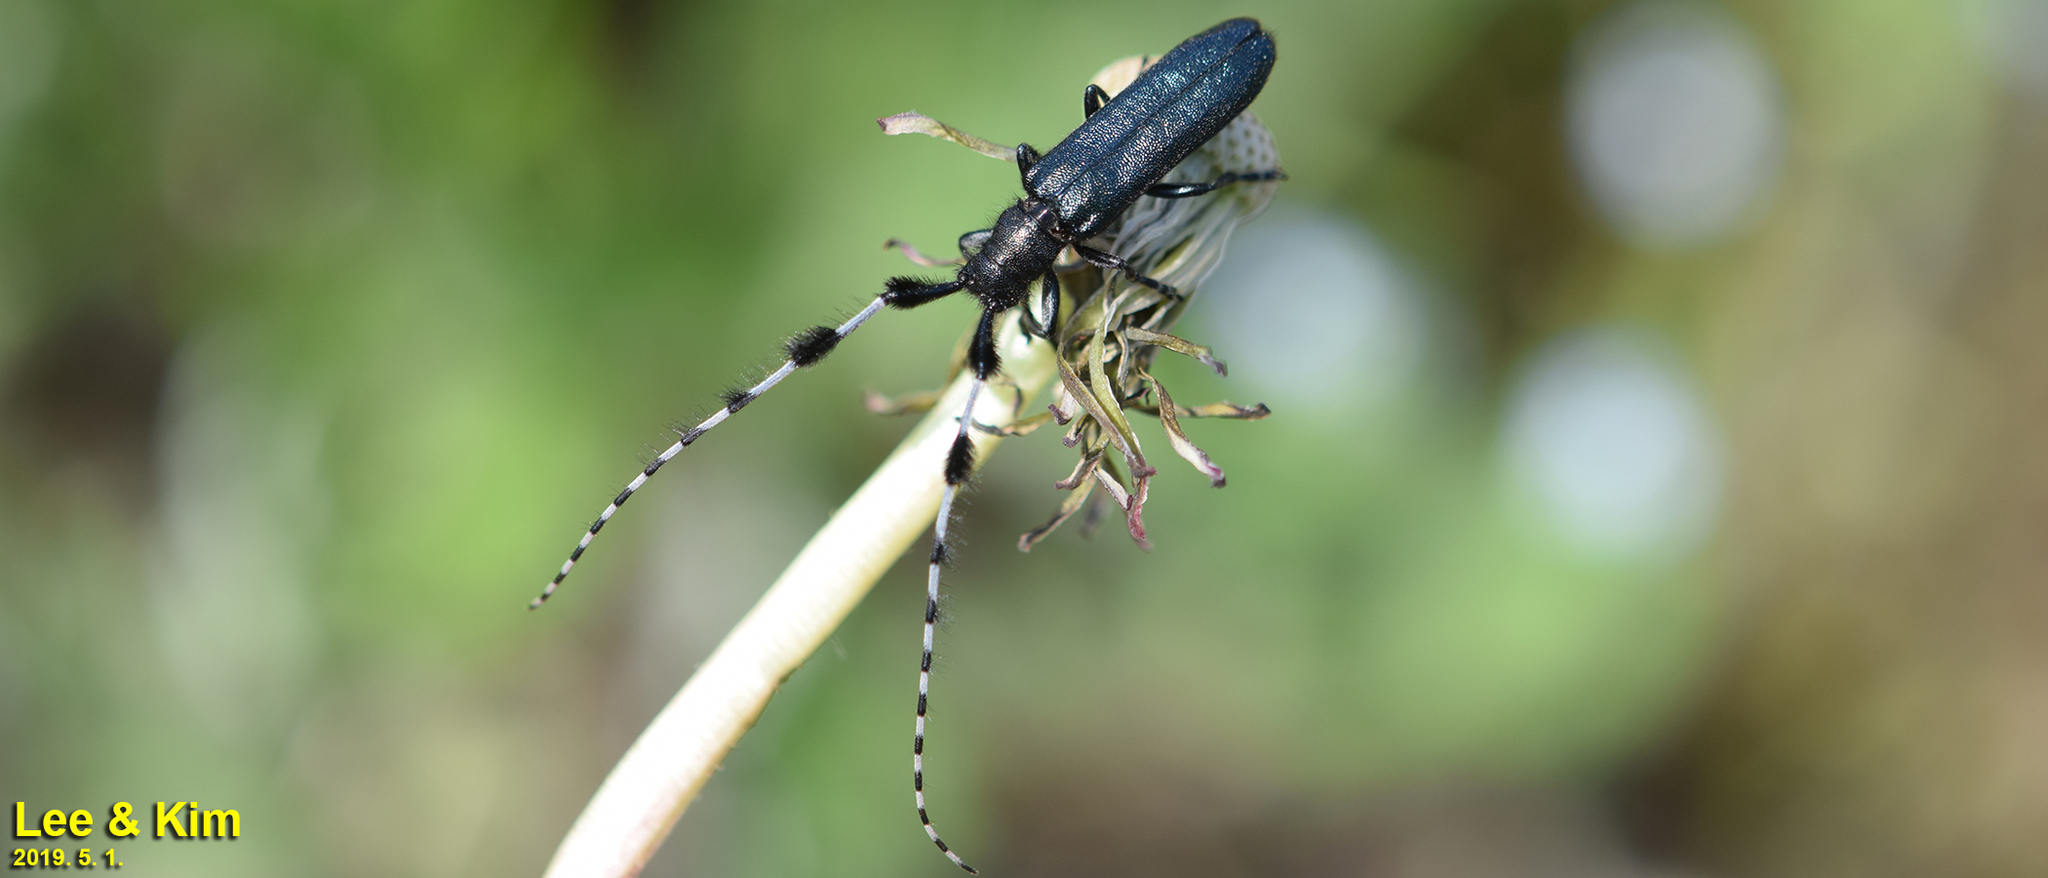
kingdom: Animalia
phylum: Arthropoda
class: Insecta
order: Coleoptera
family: Cerambycidae
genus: Agapanthia
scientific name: Agapanthia amurensis
